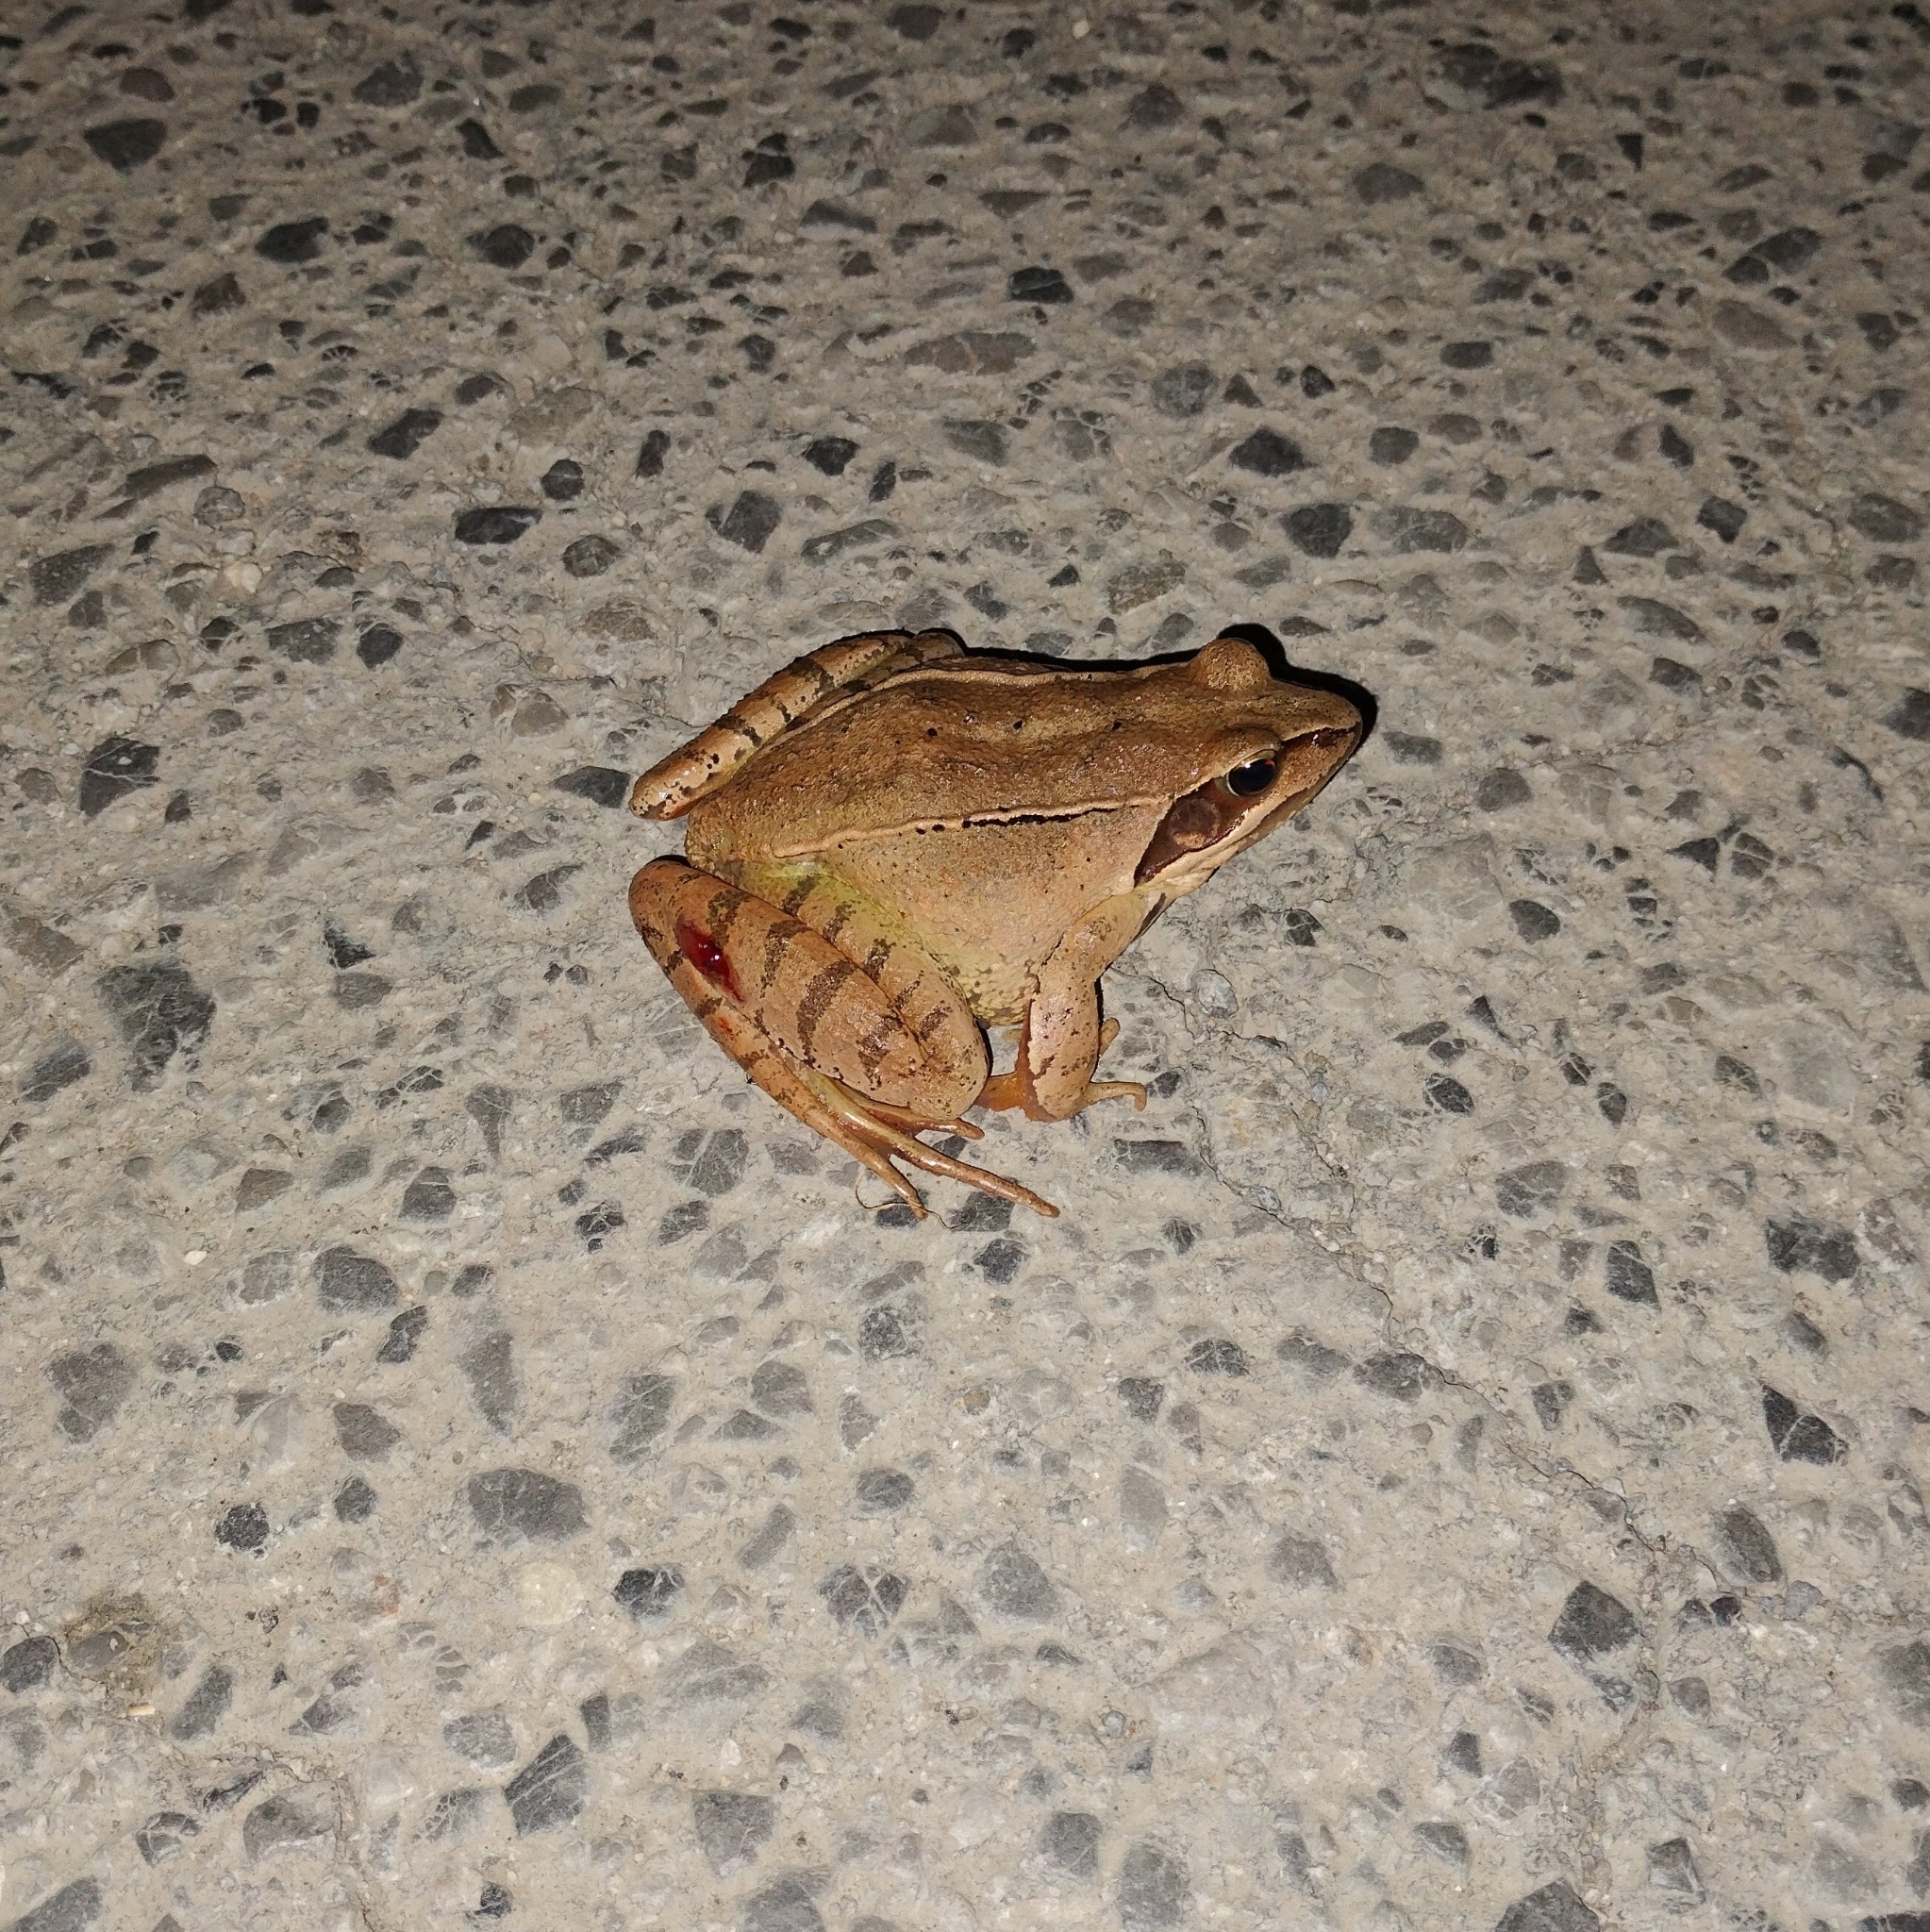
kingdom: Animalia
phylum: Chordata
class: Amphibia
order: Anura
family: Ranidae
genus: Rana
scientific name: Rana dalmatina
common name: Agile frog
